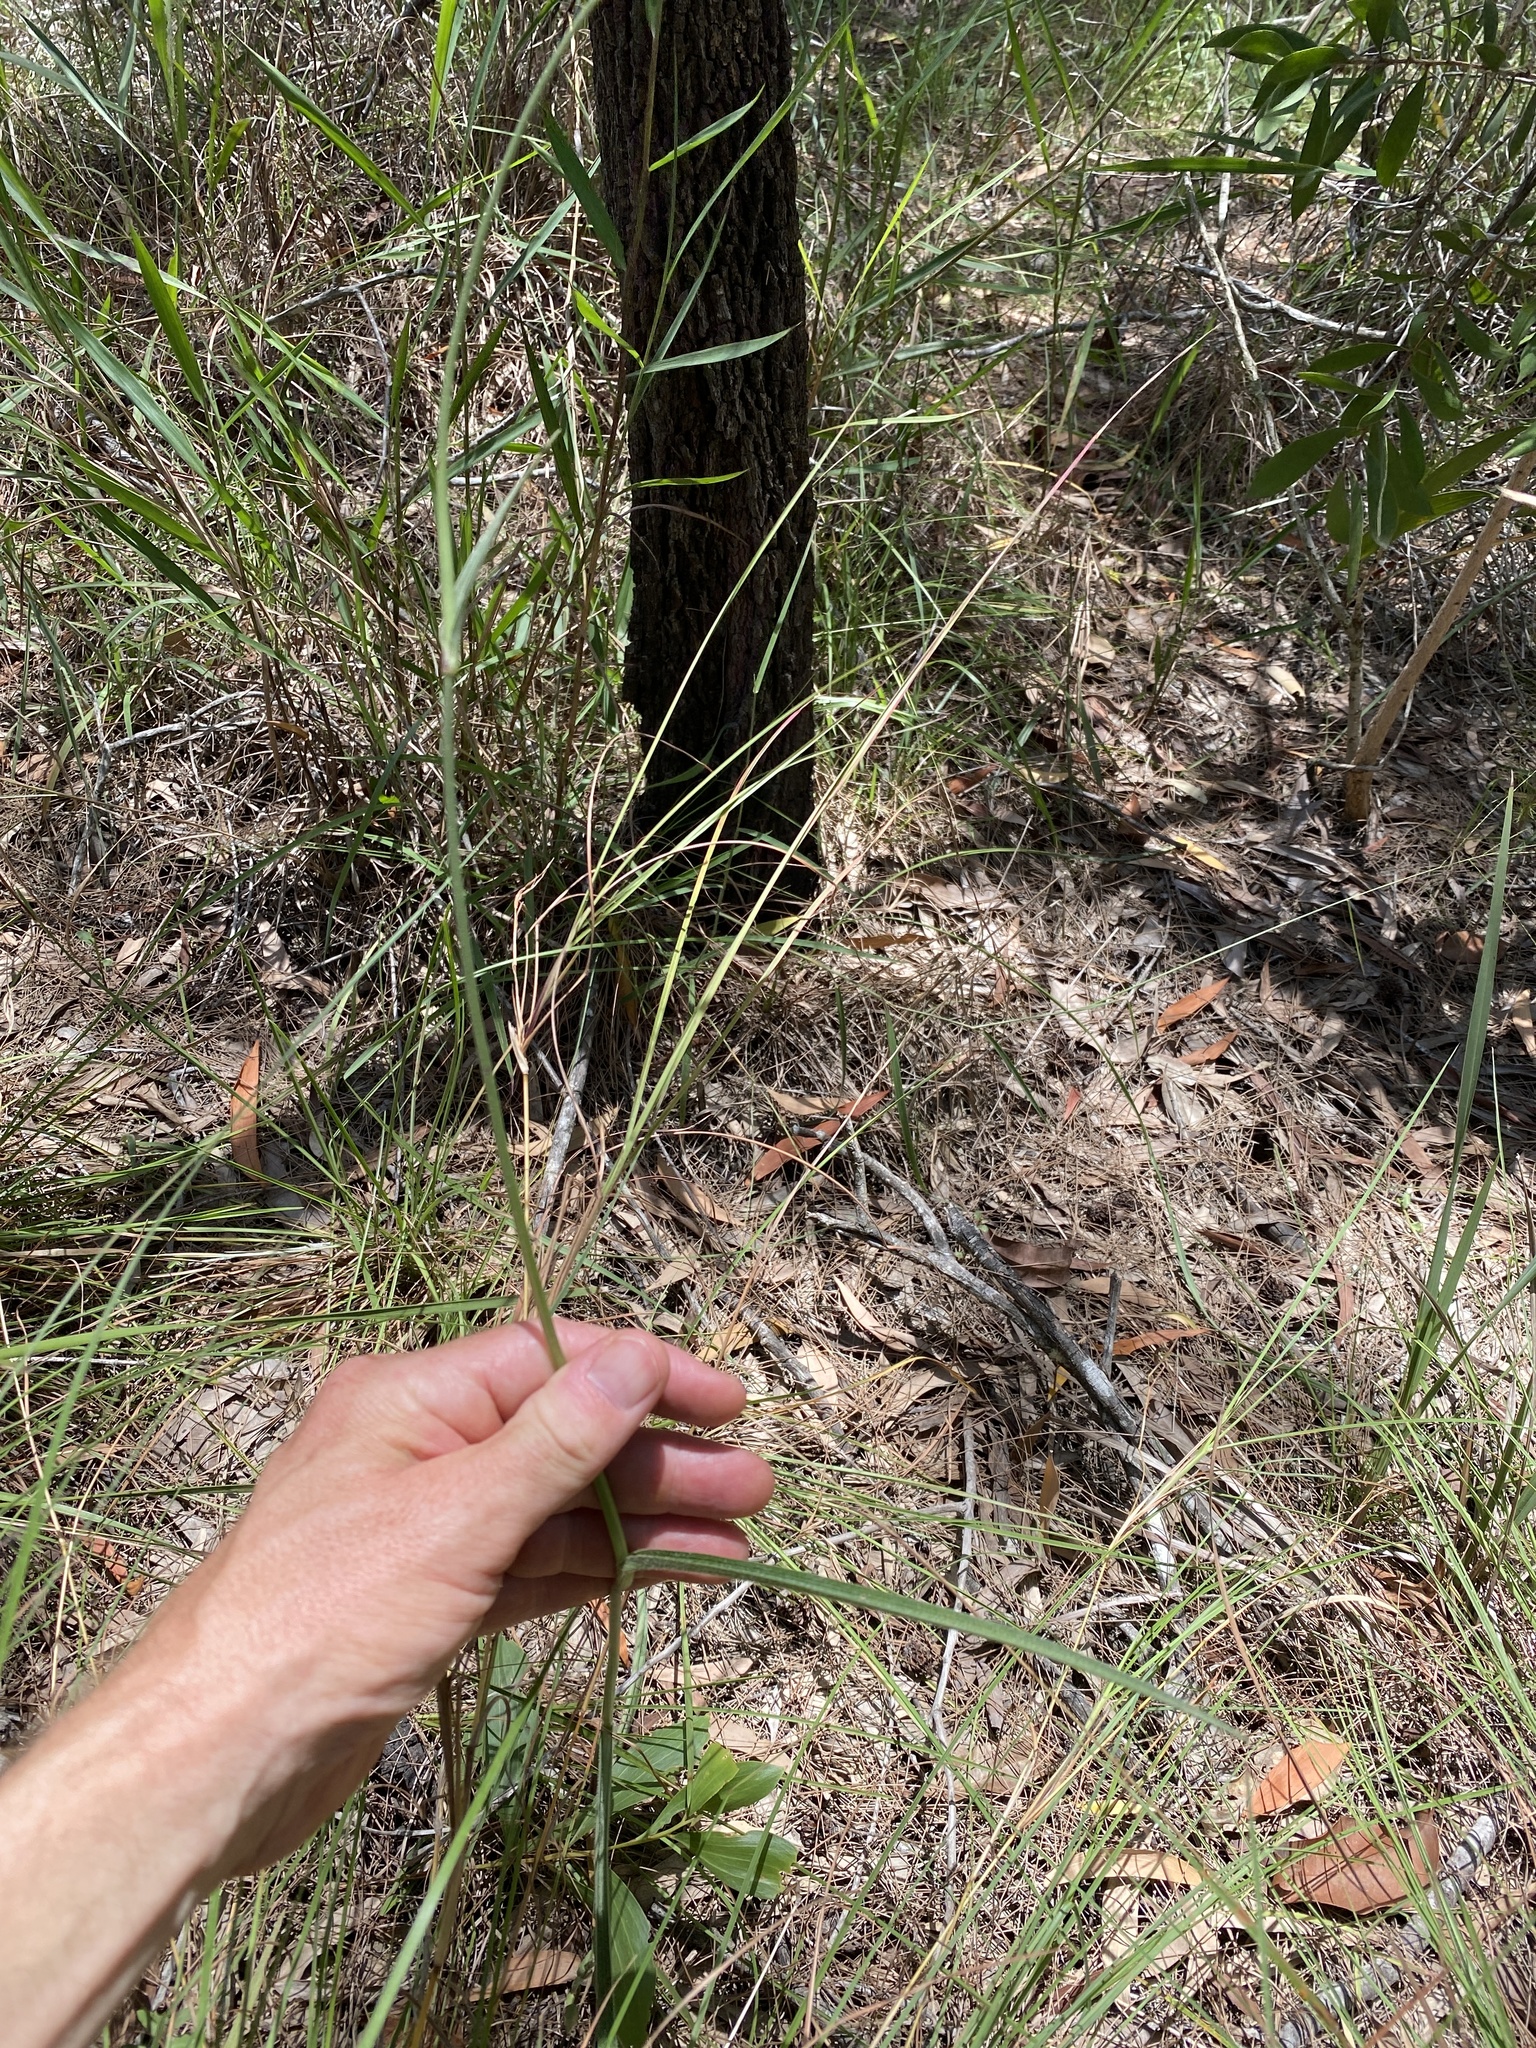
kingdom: Plantae
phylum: Tracheophyta
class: Liliopsida
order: Commelinales
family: Commelinaceae
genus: Murdannia
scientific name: Murdannia graminea
